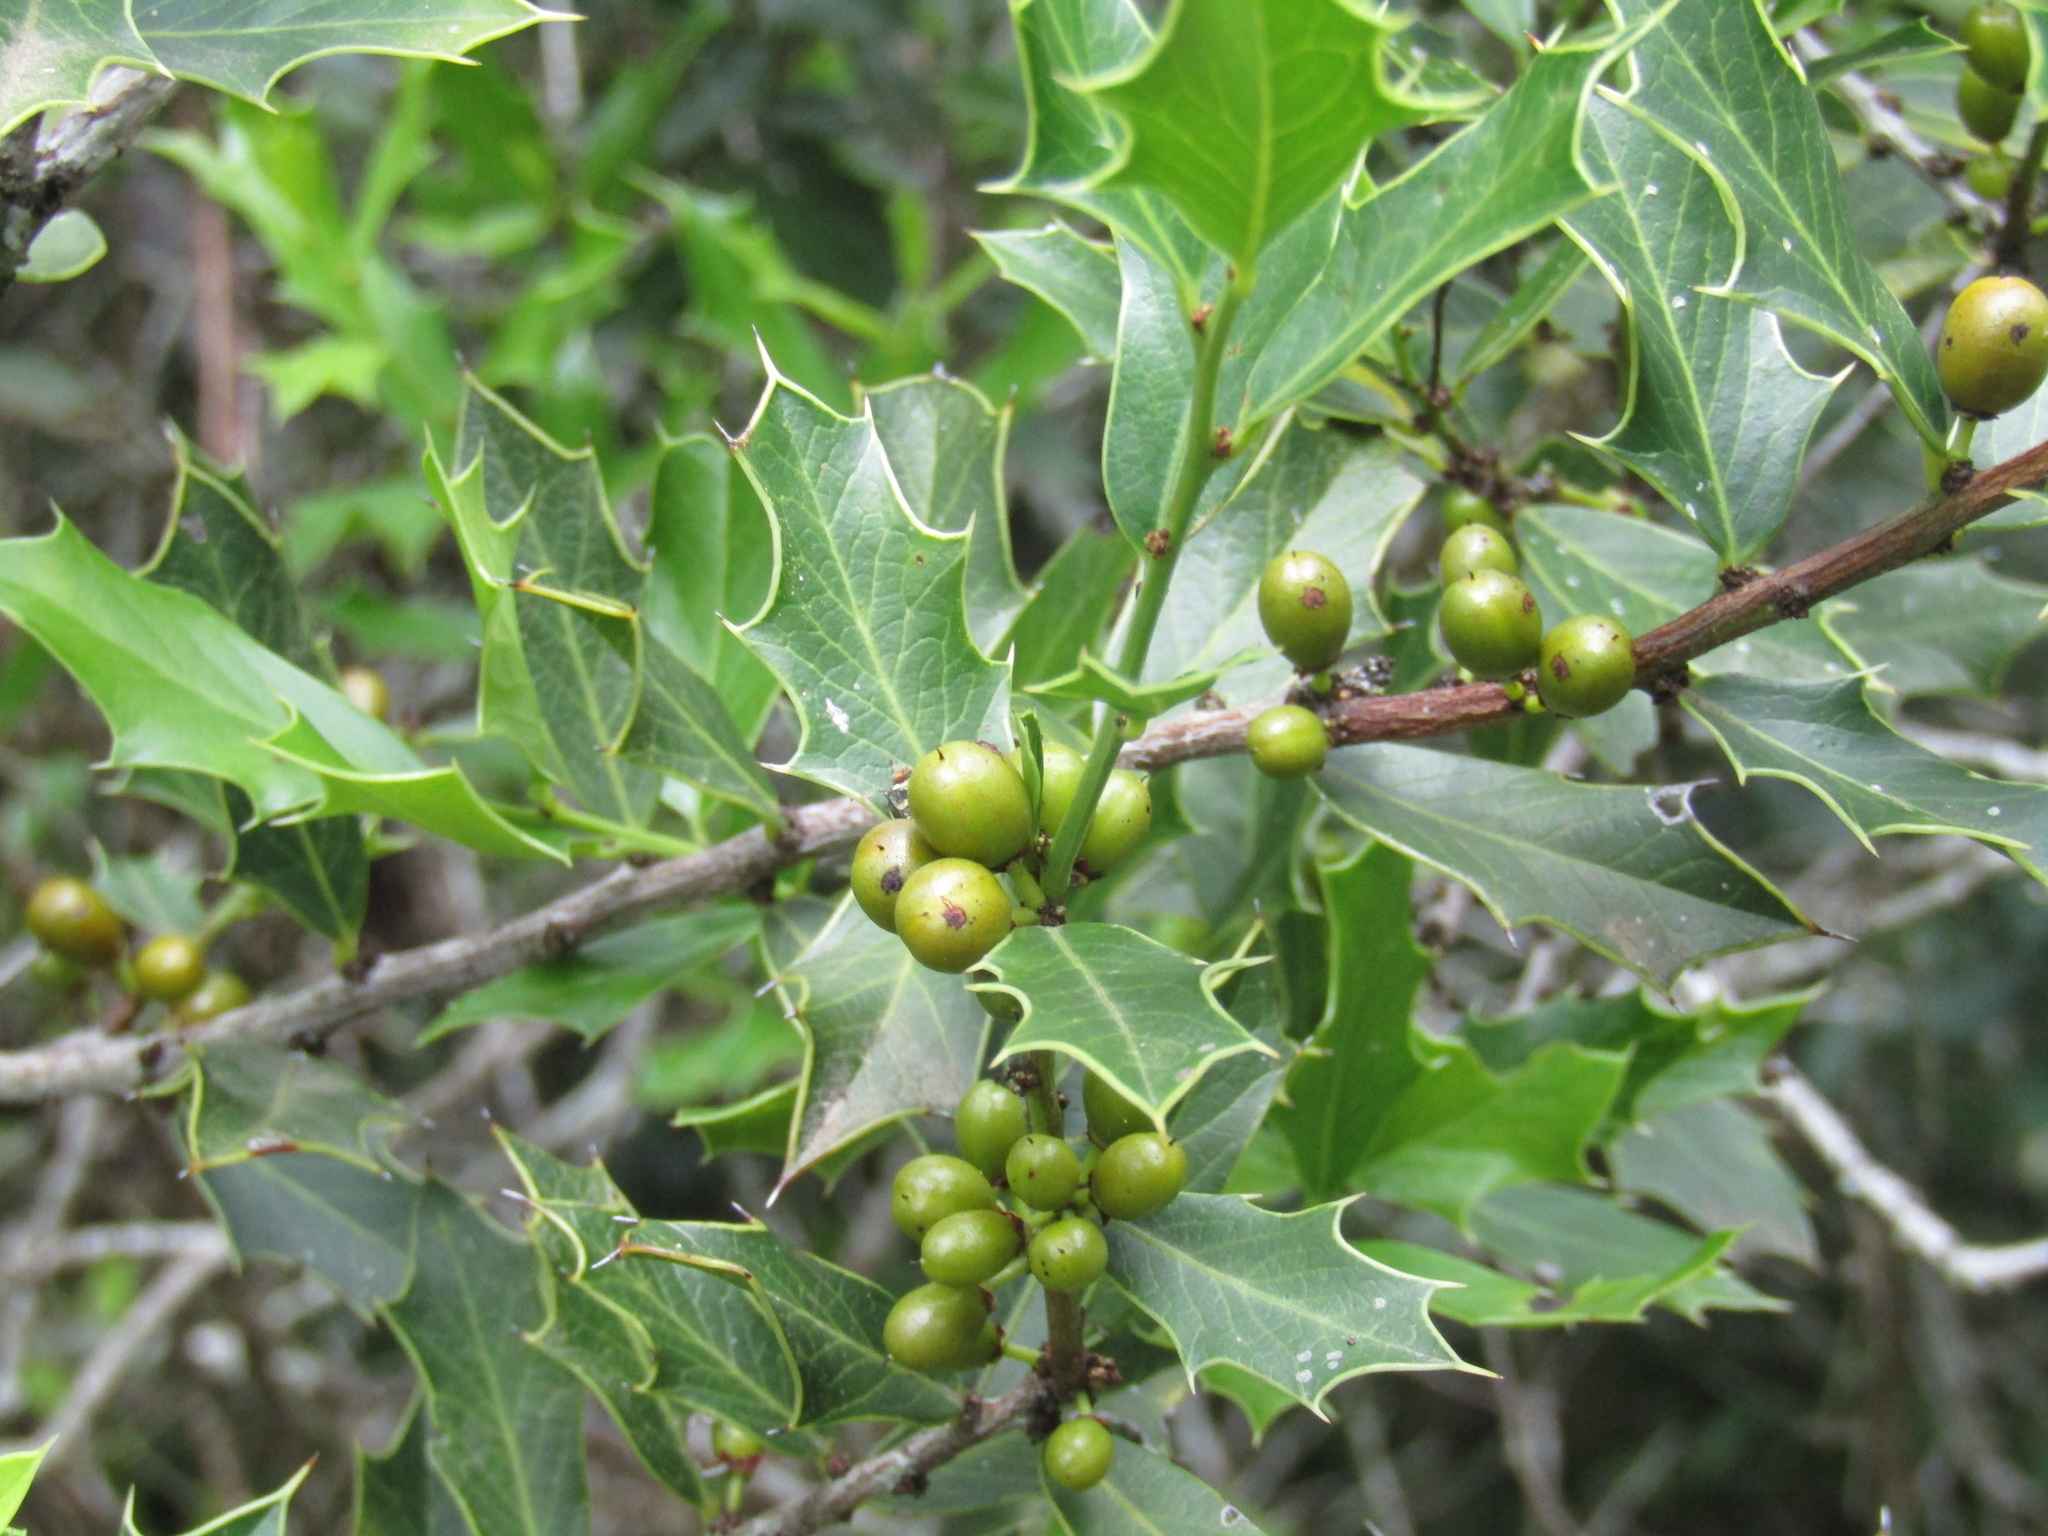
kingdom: Plantae
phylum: Tracheophyta
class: Magnoliopsida
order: Celastrales
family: Celastraceae
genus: Monteverdia
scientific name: Monteverdia
